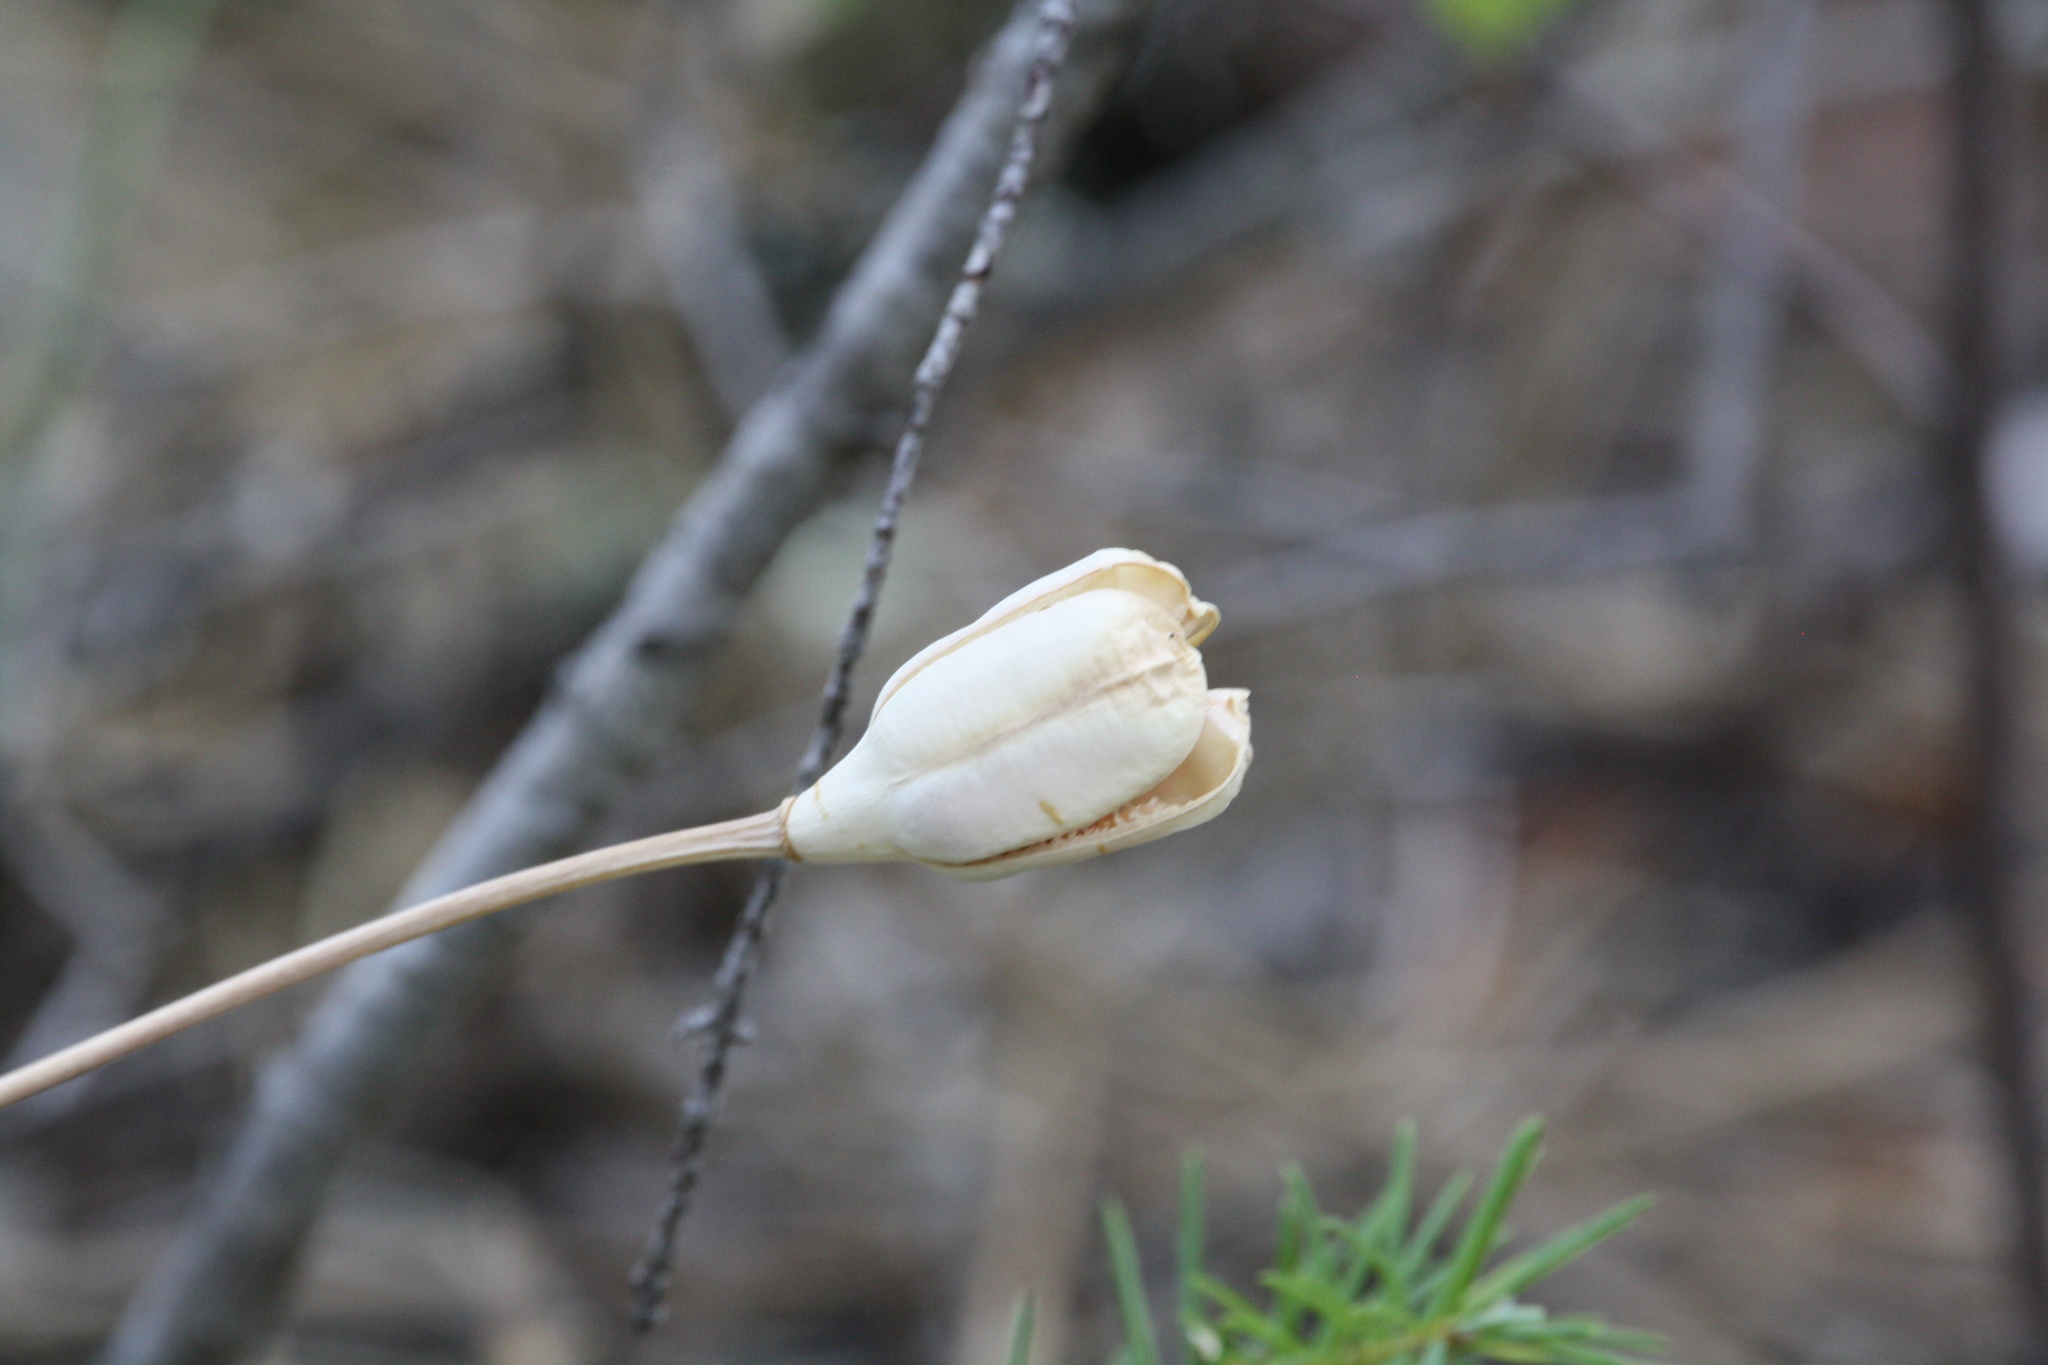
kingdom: Plantae
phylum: Tracheophyta
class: Liliopsida
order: Liliales
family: Liliaceae
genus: Fritillaria
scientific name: Fritillaria pudica
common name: Yellow fritillary
